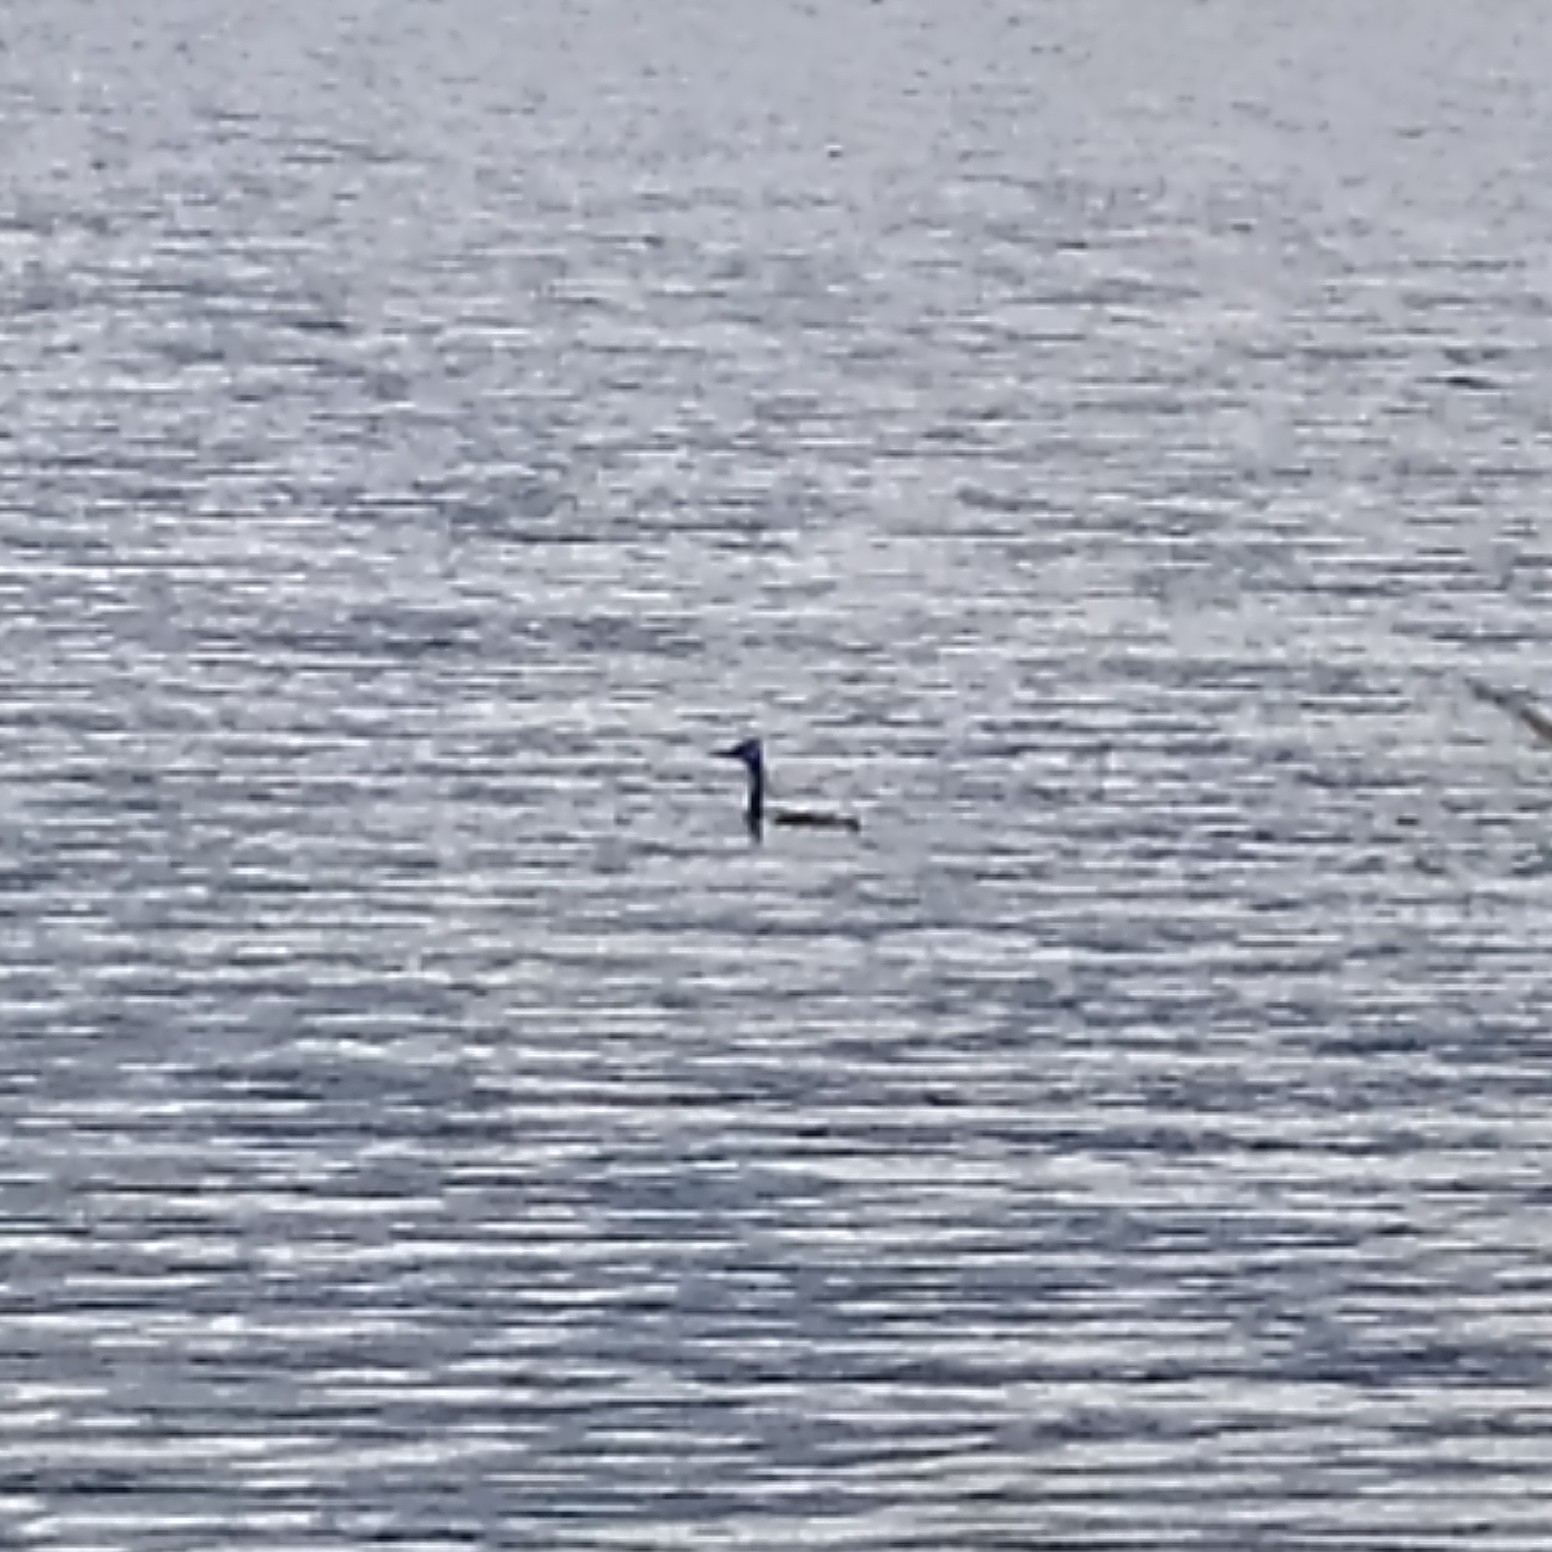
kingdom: Animalia
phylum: Chordata
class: Aves
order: Podicipediformes
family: Podicipedidae
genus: Podiceps
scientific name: Podiceps cristatus
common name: Great crested grebe
